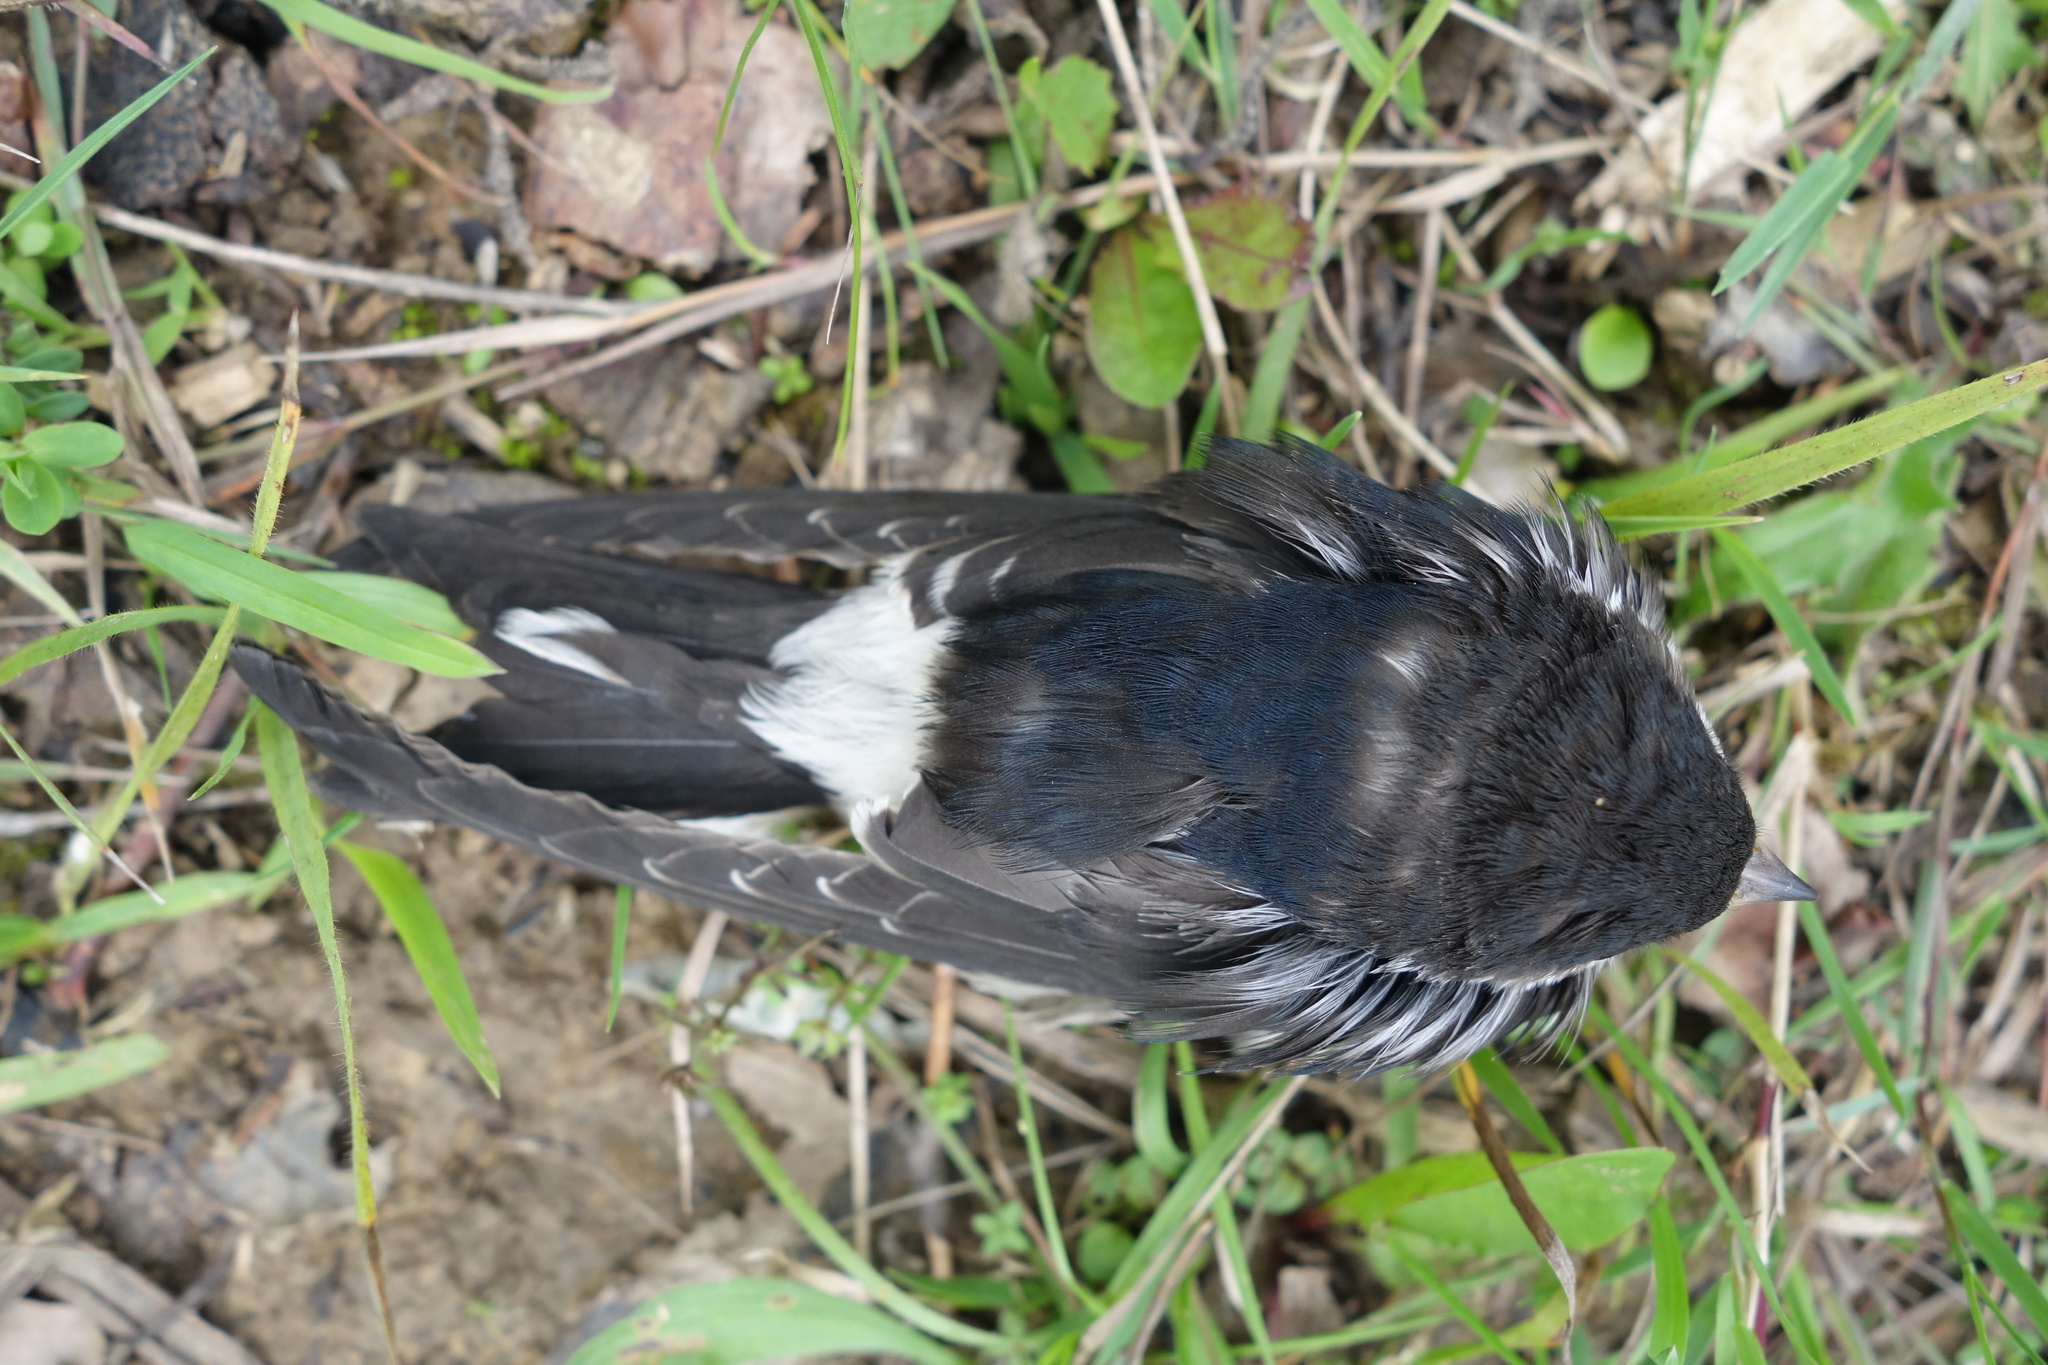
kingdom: Animalia
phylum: Chordata
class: Aves
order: Passeriformes
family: Hirundinidae
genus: Delichon
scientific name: Delichon urbicum
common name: Common house martin
